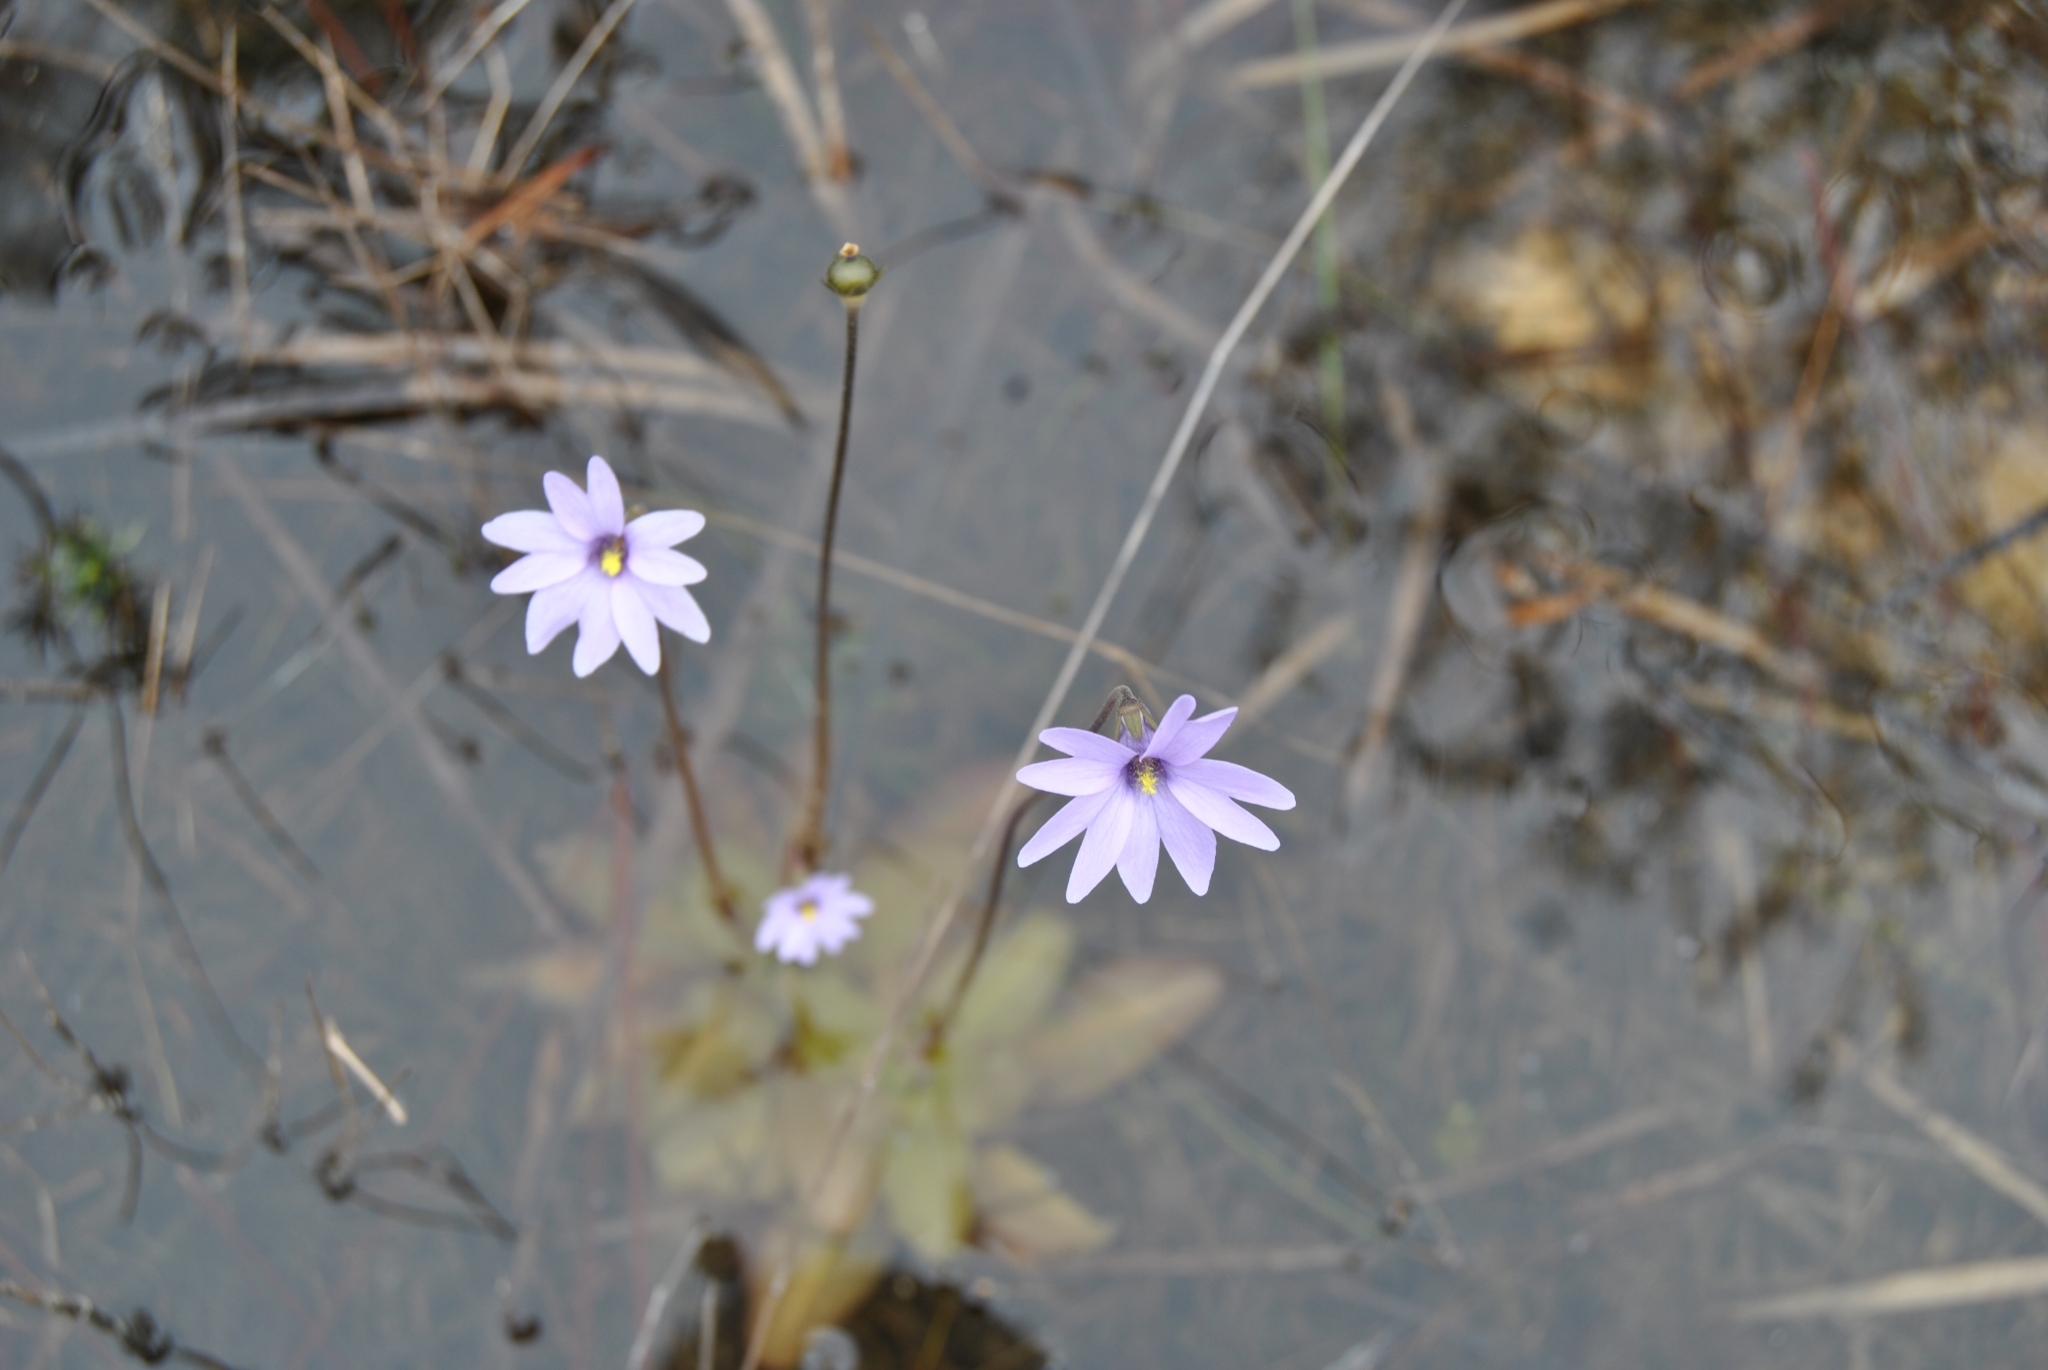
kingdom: Plantae
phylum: Tracheophyta
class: Magnoliopsida
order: Lamiales
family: Lentibulariaceae
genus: Pinguicula
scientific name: Pinguicula planifolia
